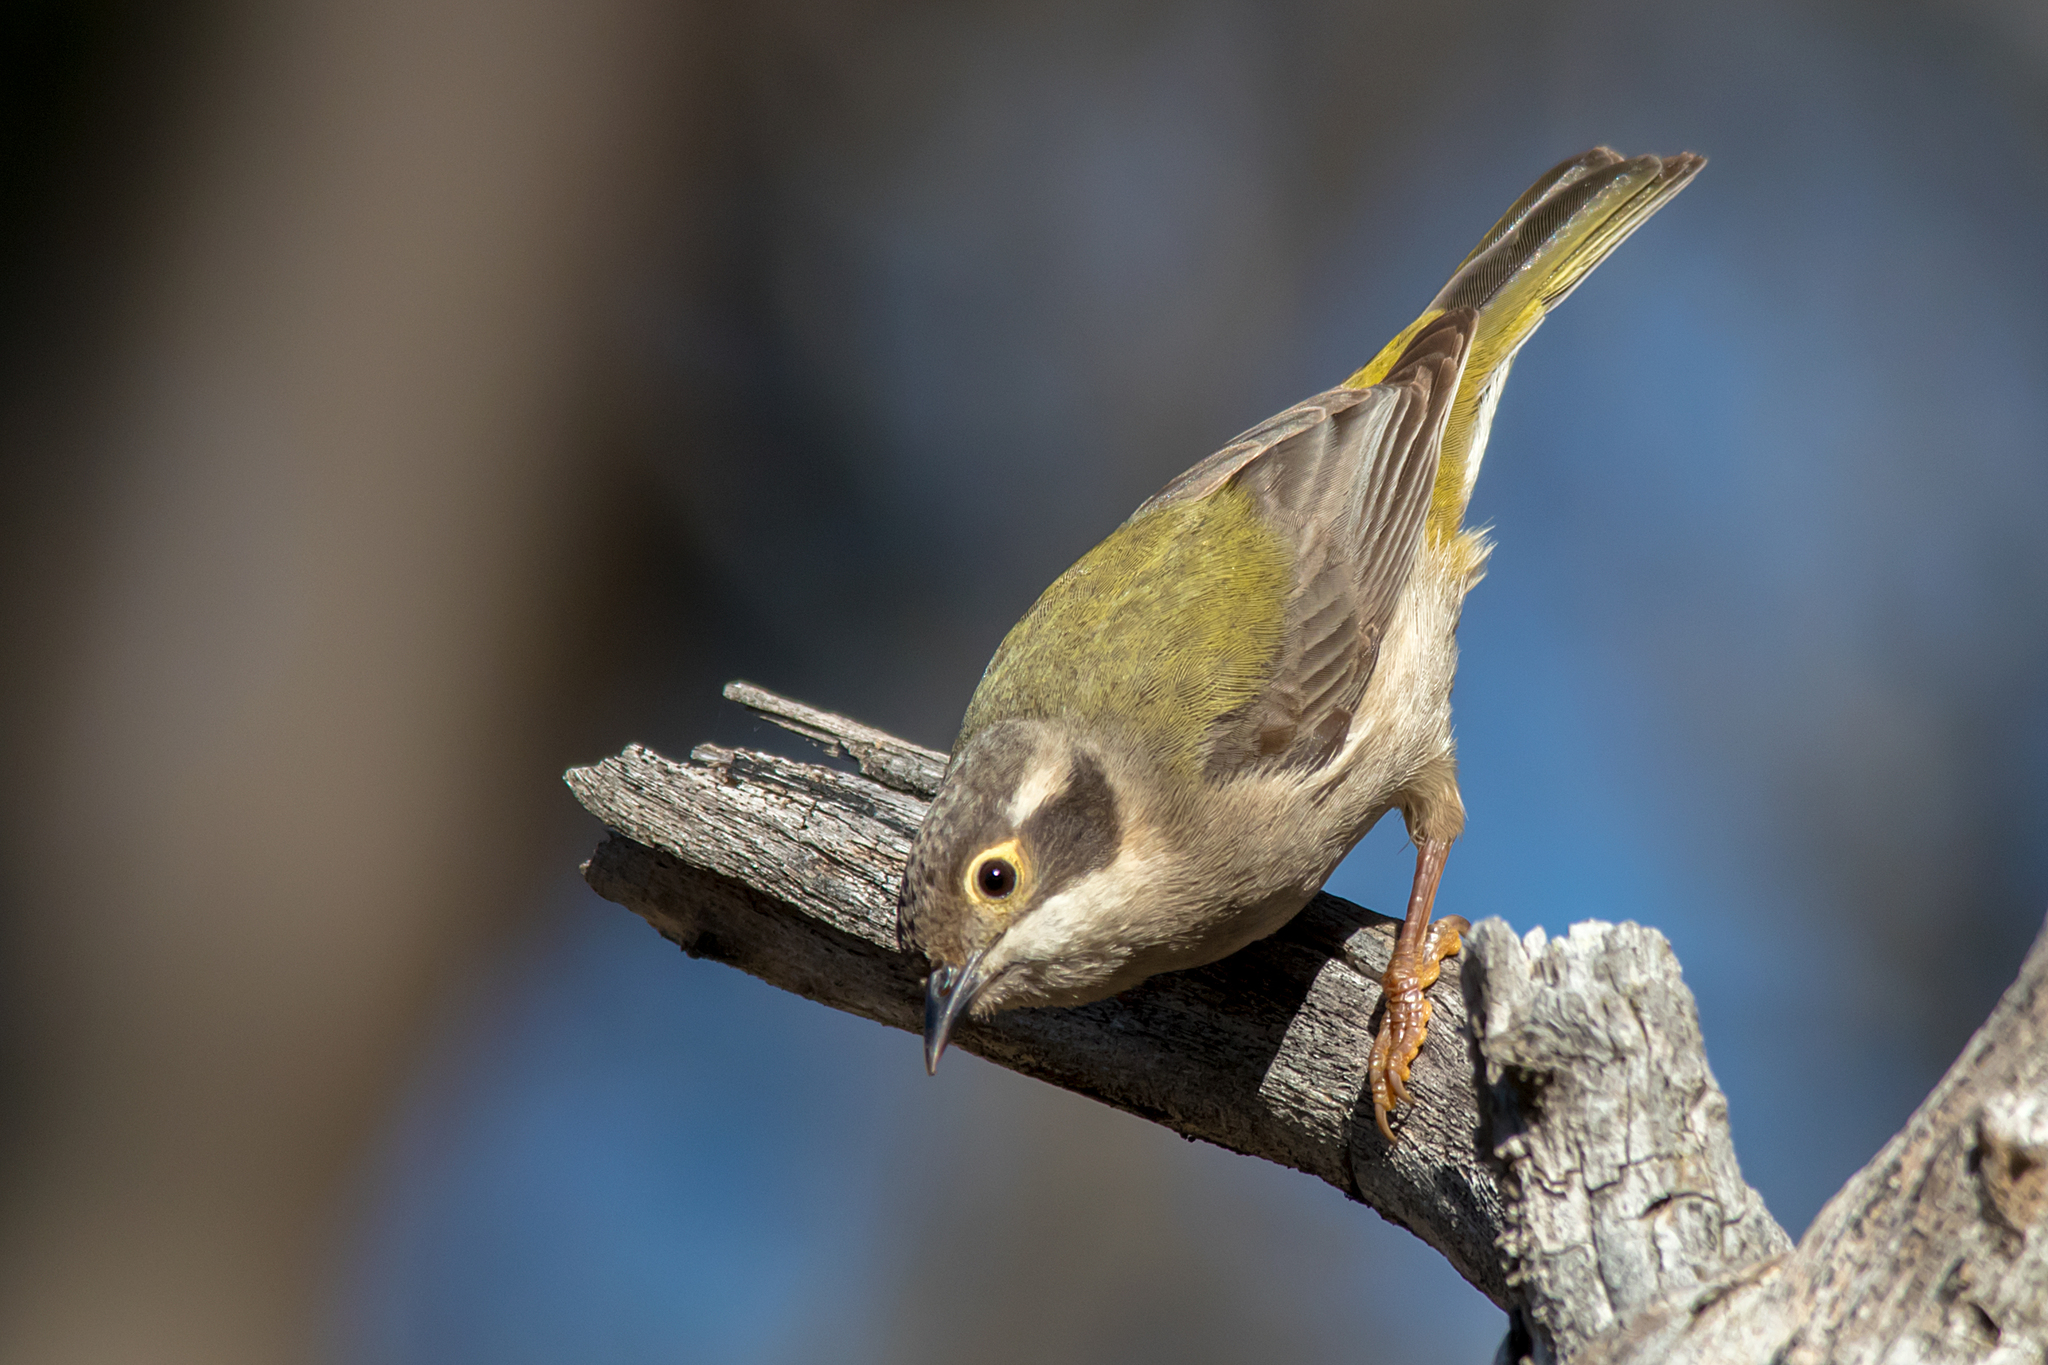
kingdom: Animalia
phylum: Chordata
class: Aves
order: Passeriformes
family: Meliphagidae
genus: Melithreptus
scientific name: Melithreptus brevirostris
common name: Brown-headed honeyeater
